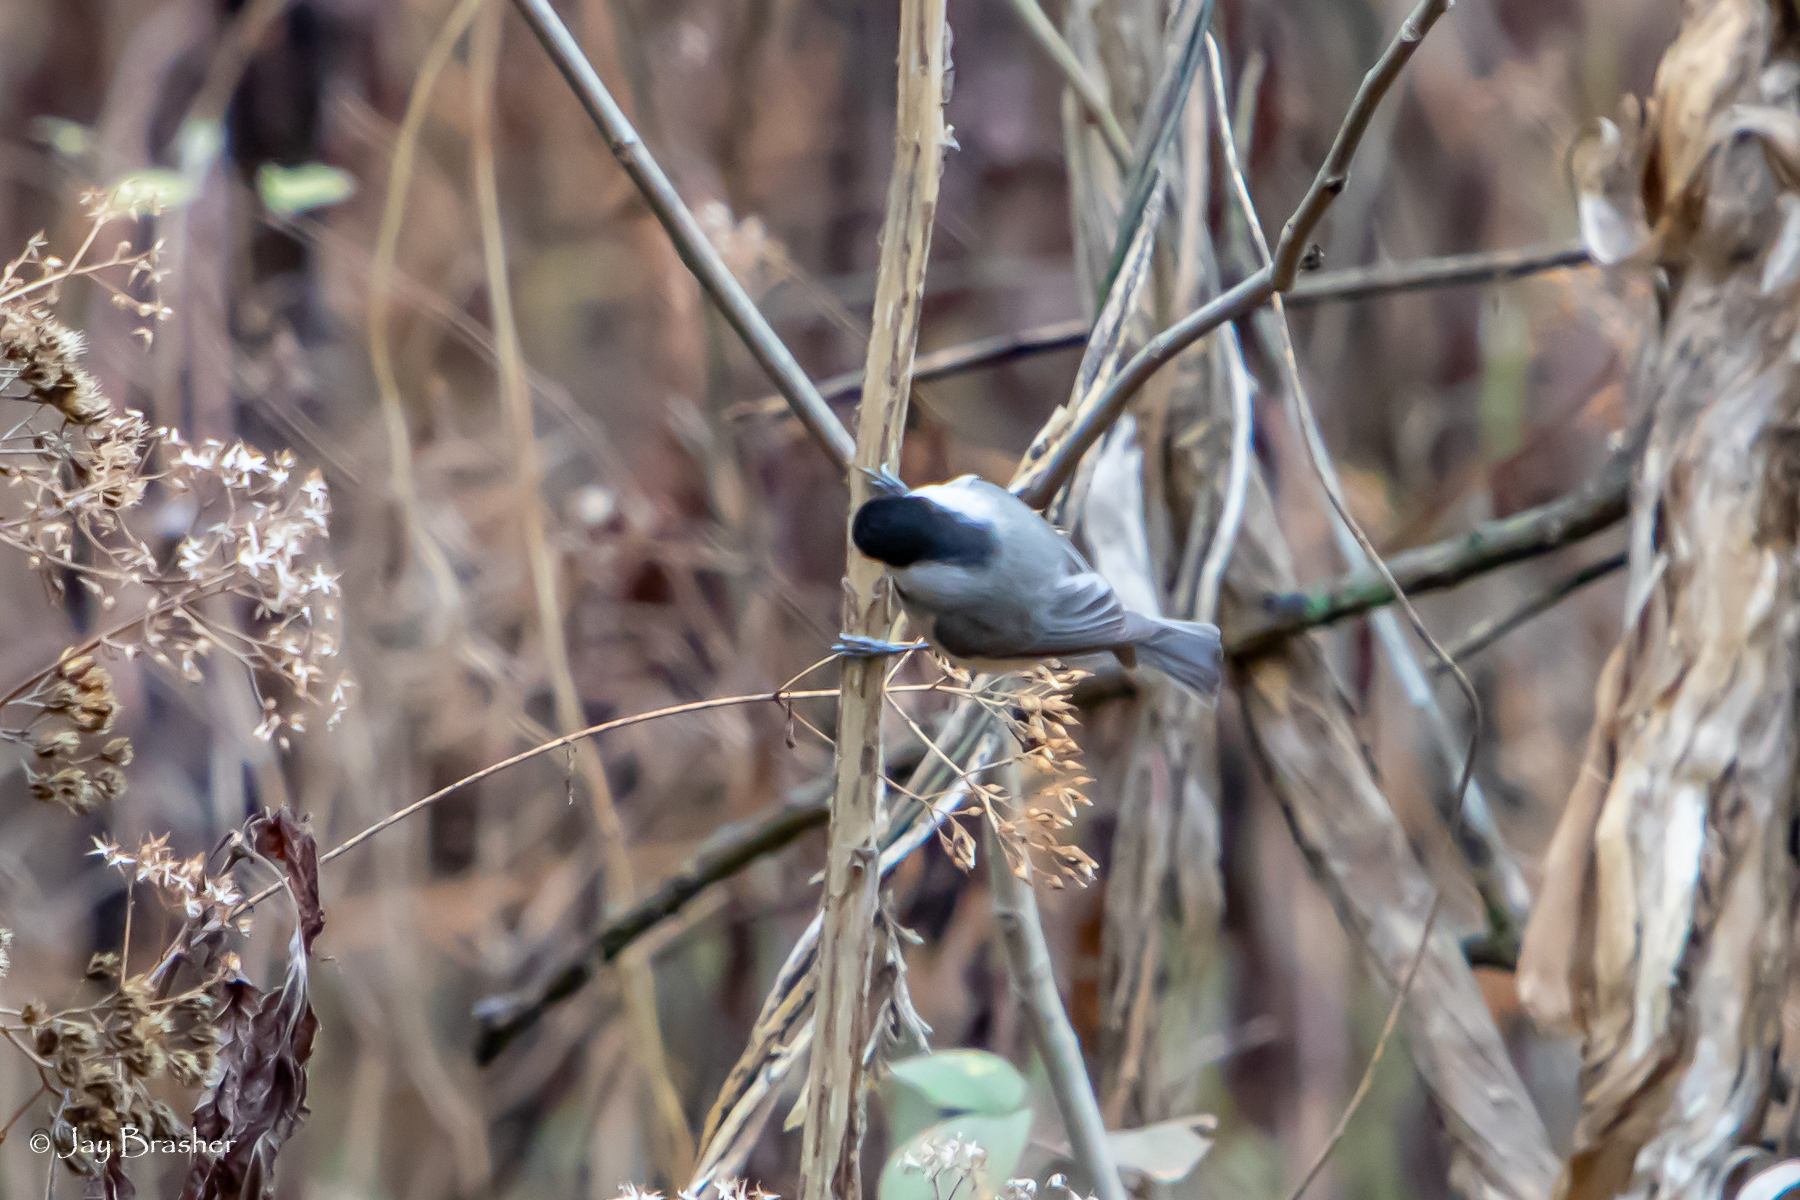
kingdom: Animalia
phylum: Chordata
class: Aves
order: Passeriformes
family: Paridae
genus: Poecile
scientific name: Poecile carolinensis
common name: Carolina chickadee
